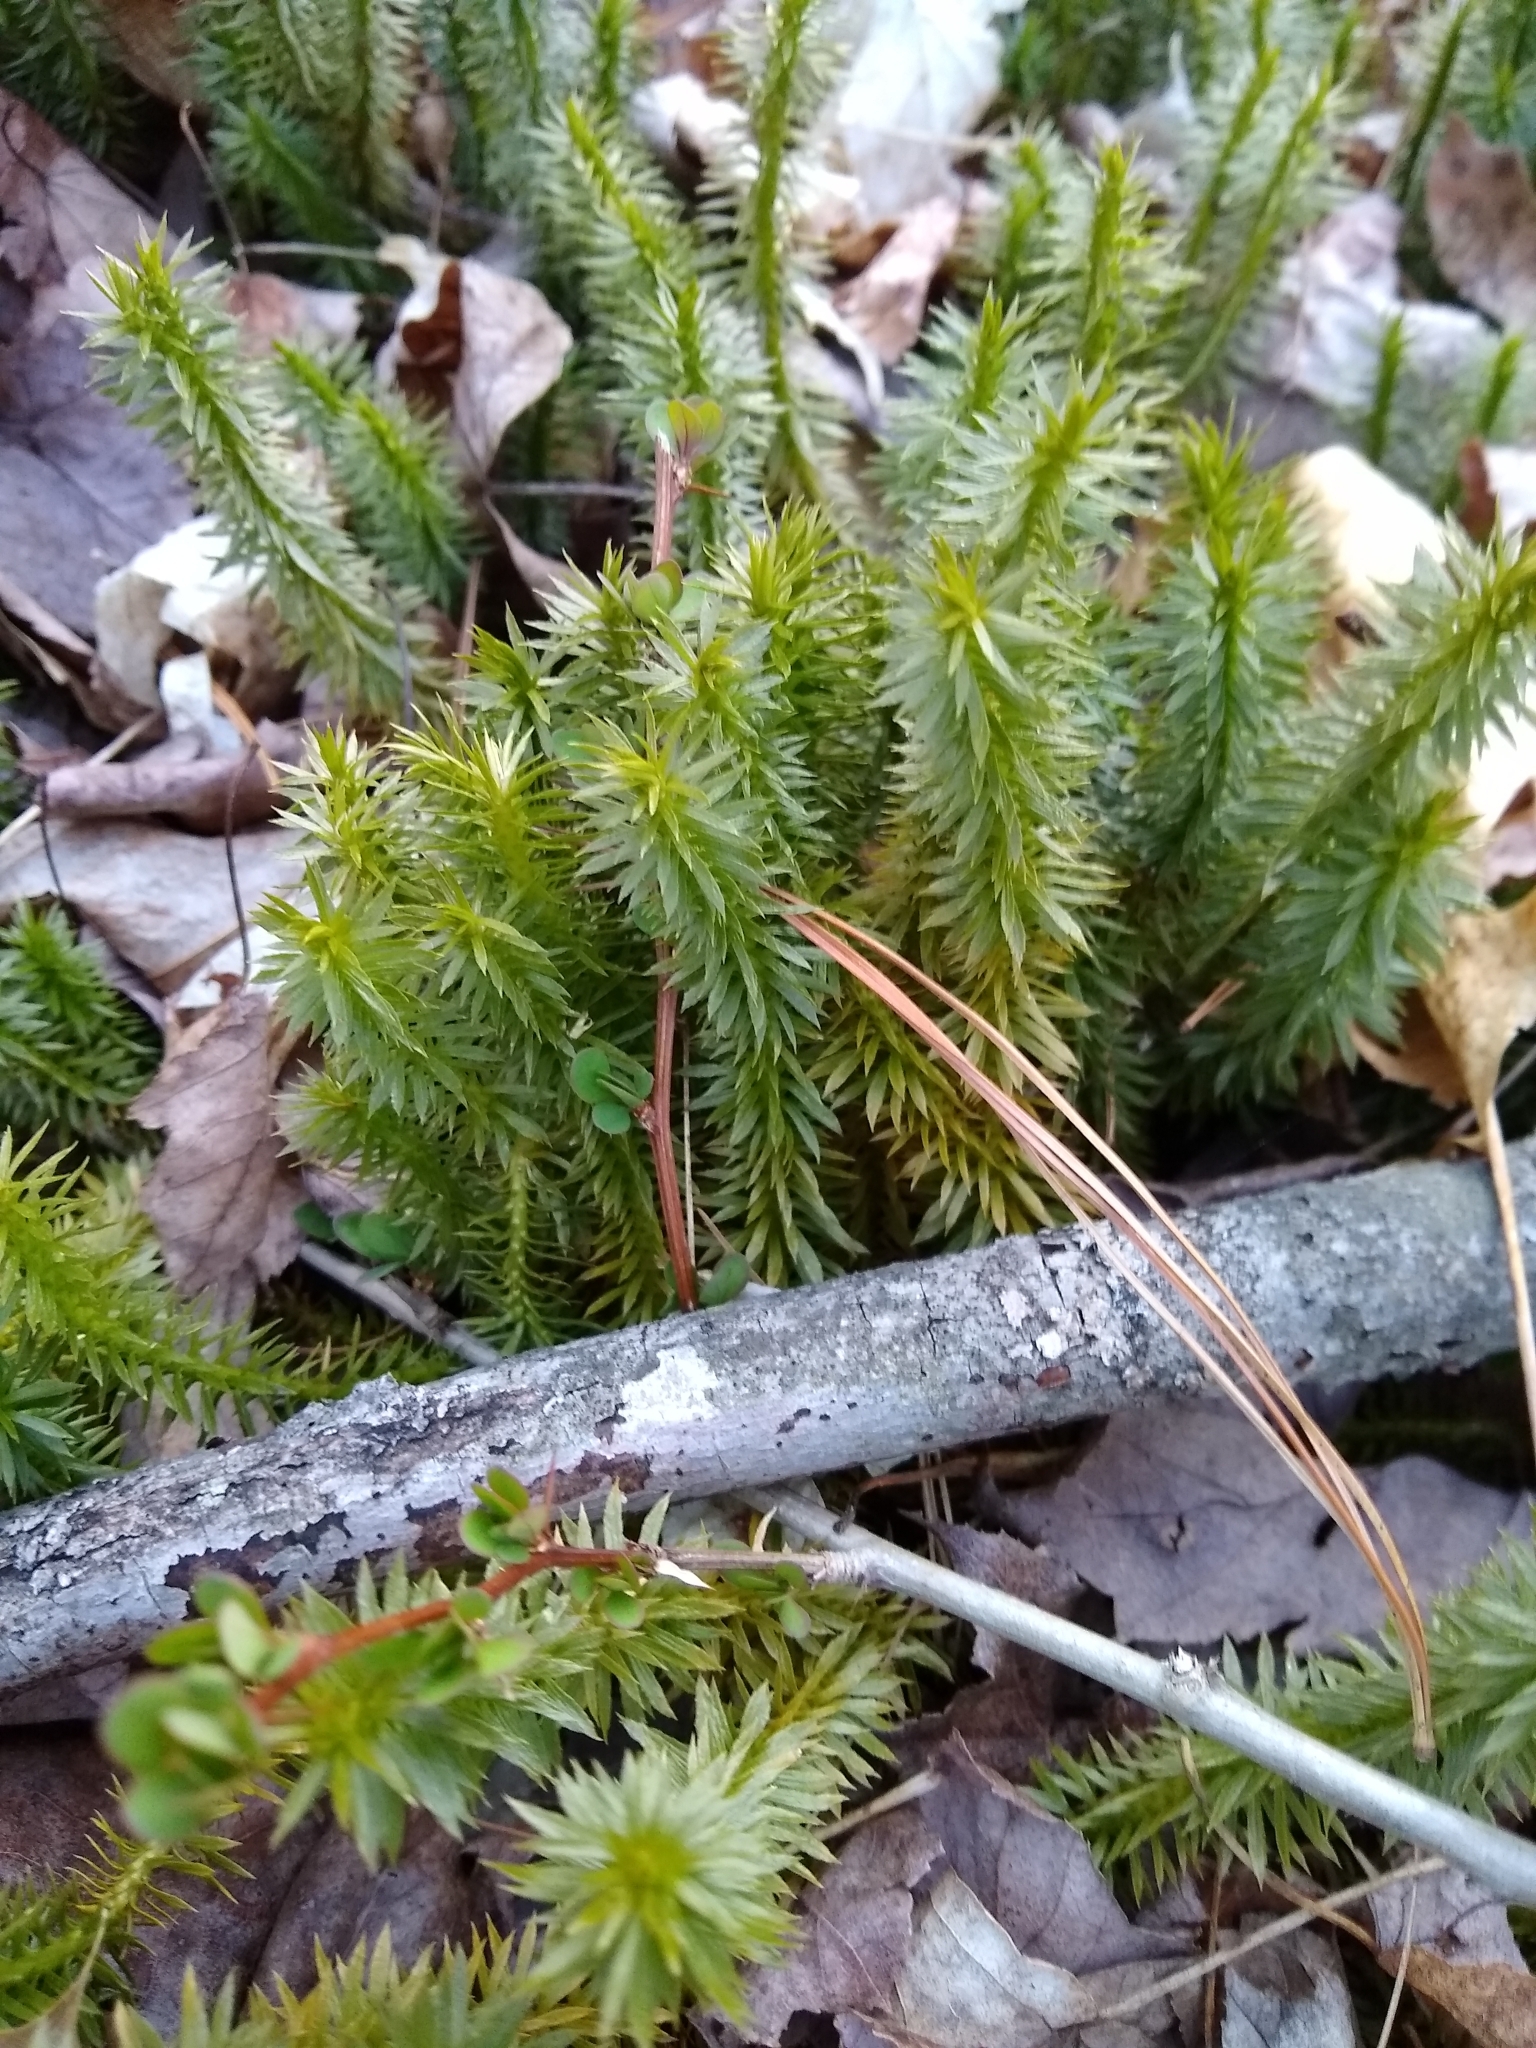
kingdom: Plantae
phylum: Tracheophyta
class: Lycopodiopsida
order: Lycopodiales
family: Lycopodiaceae
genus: Huperzia
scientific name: Huperzia lucidula
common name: Shining clubmoss
